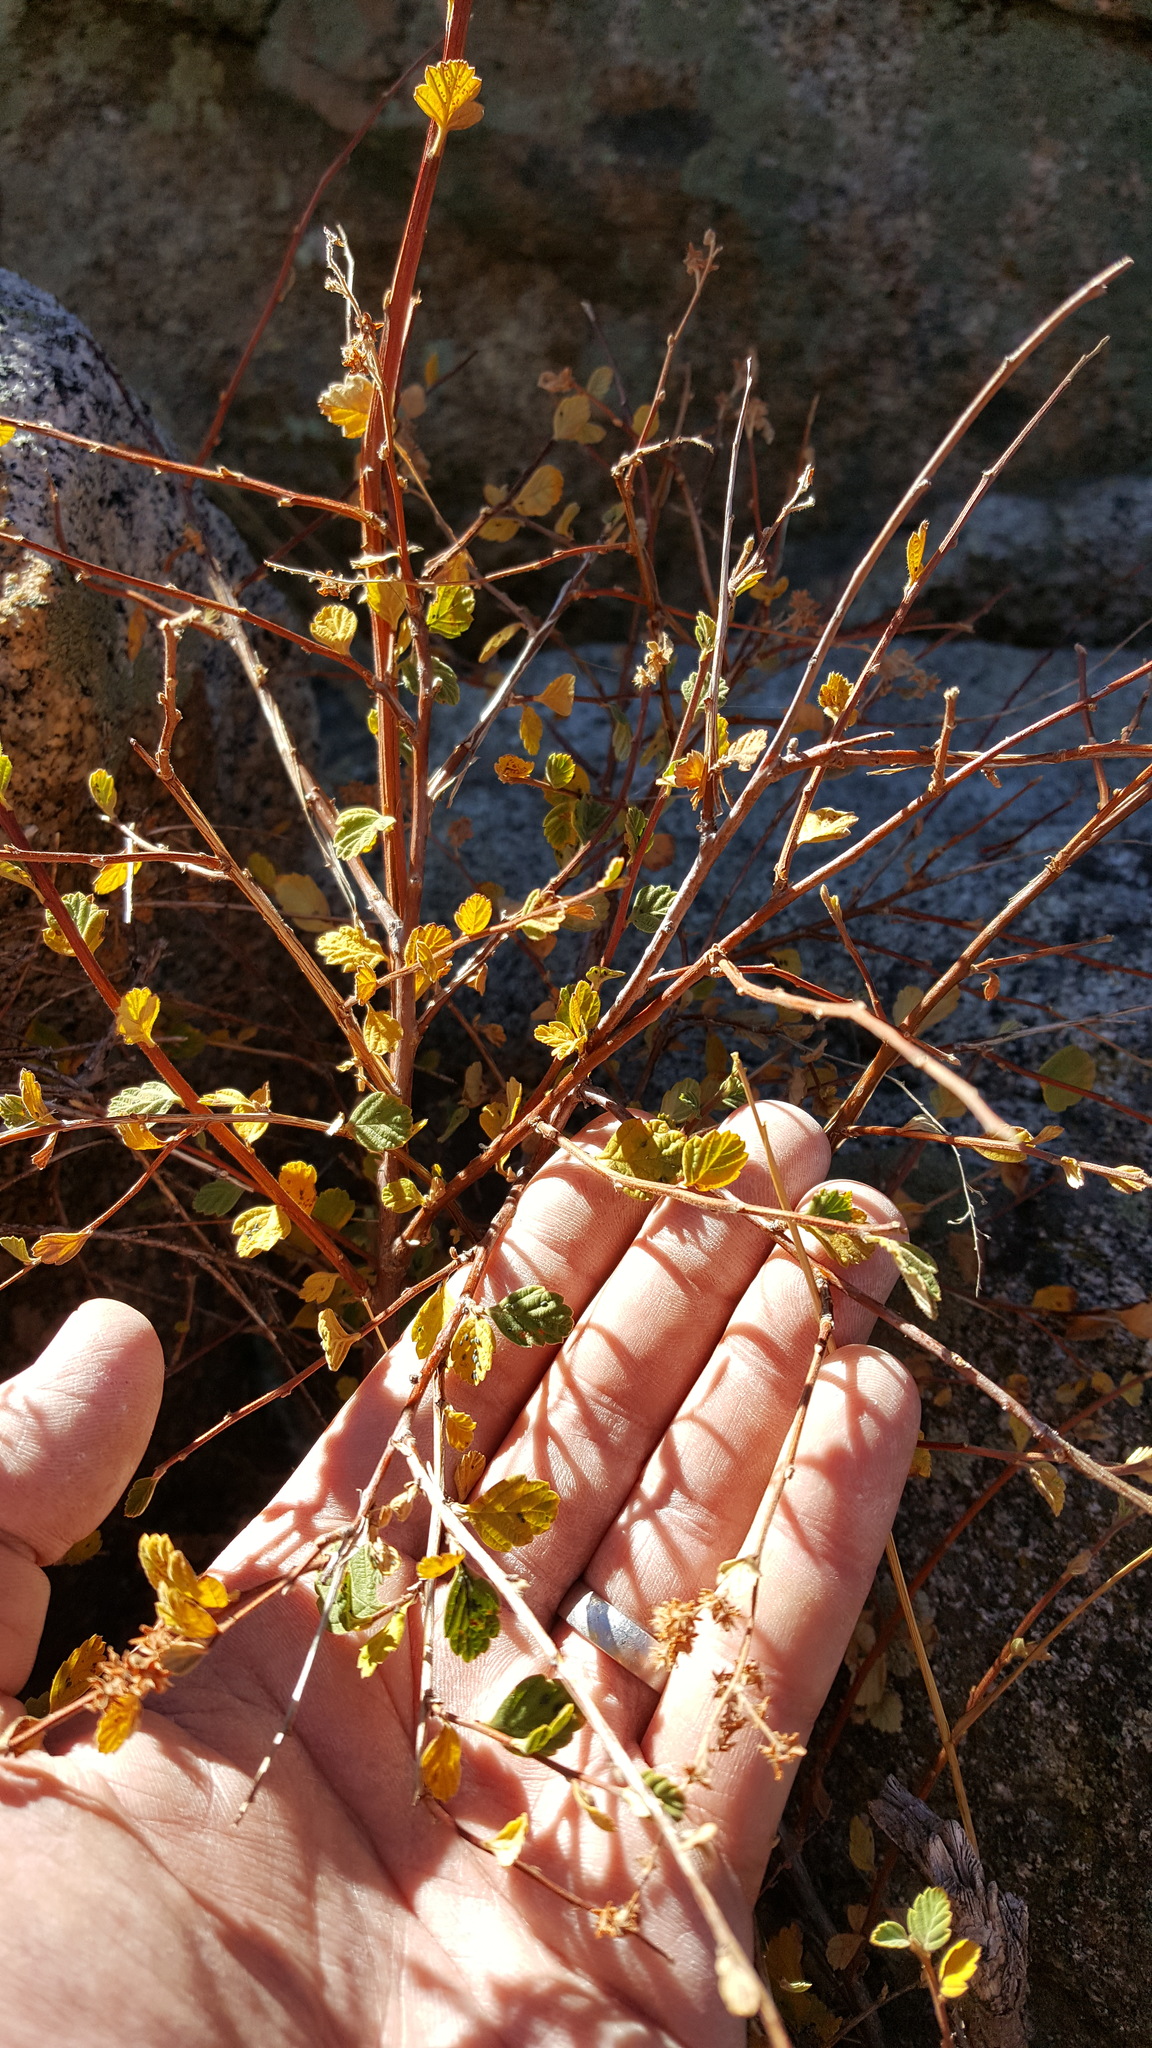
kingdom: Plantae
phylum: Tracheophyta
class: Magnoliopsida
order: Rosales
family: Rosaceae
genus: Holodiscus
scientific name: Holodiscus discolor
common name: Oceanspray
